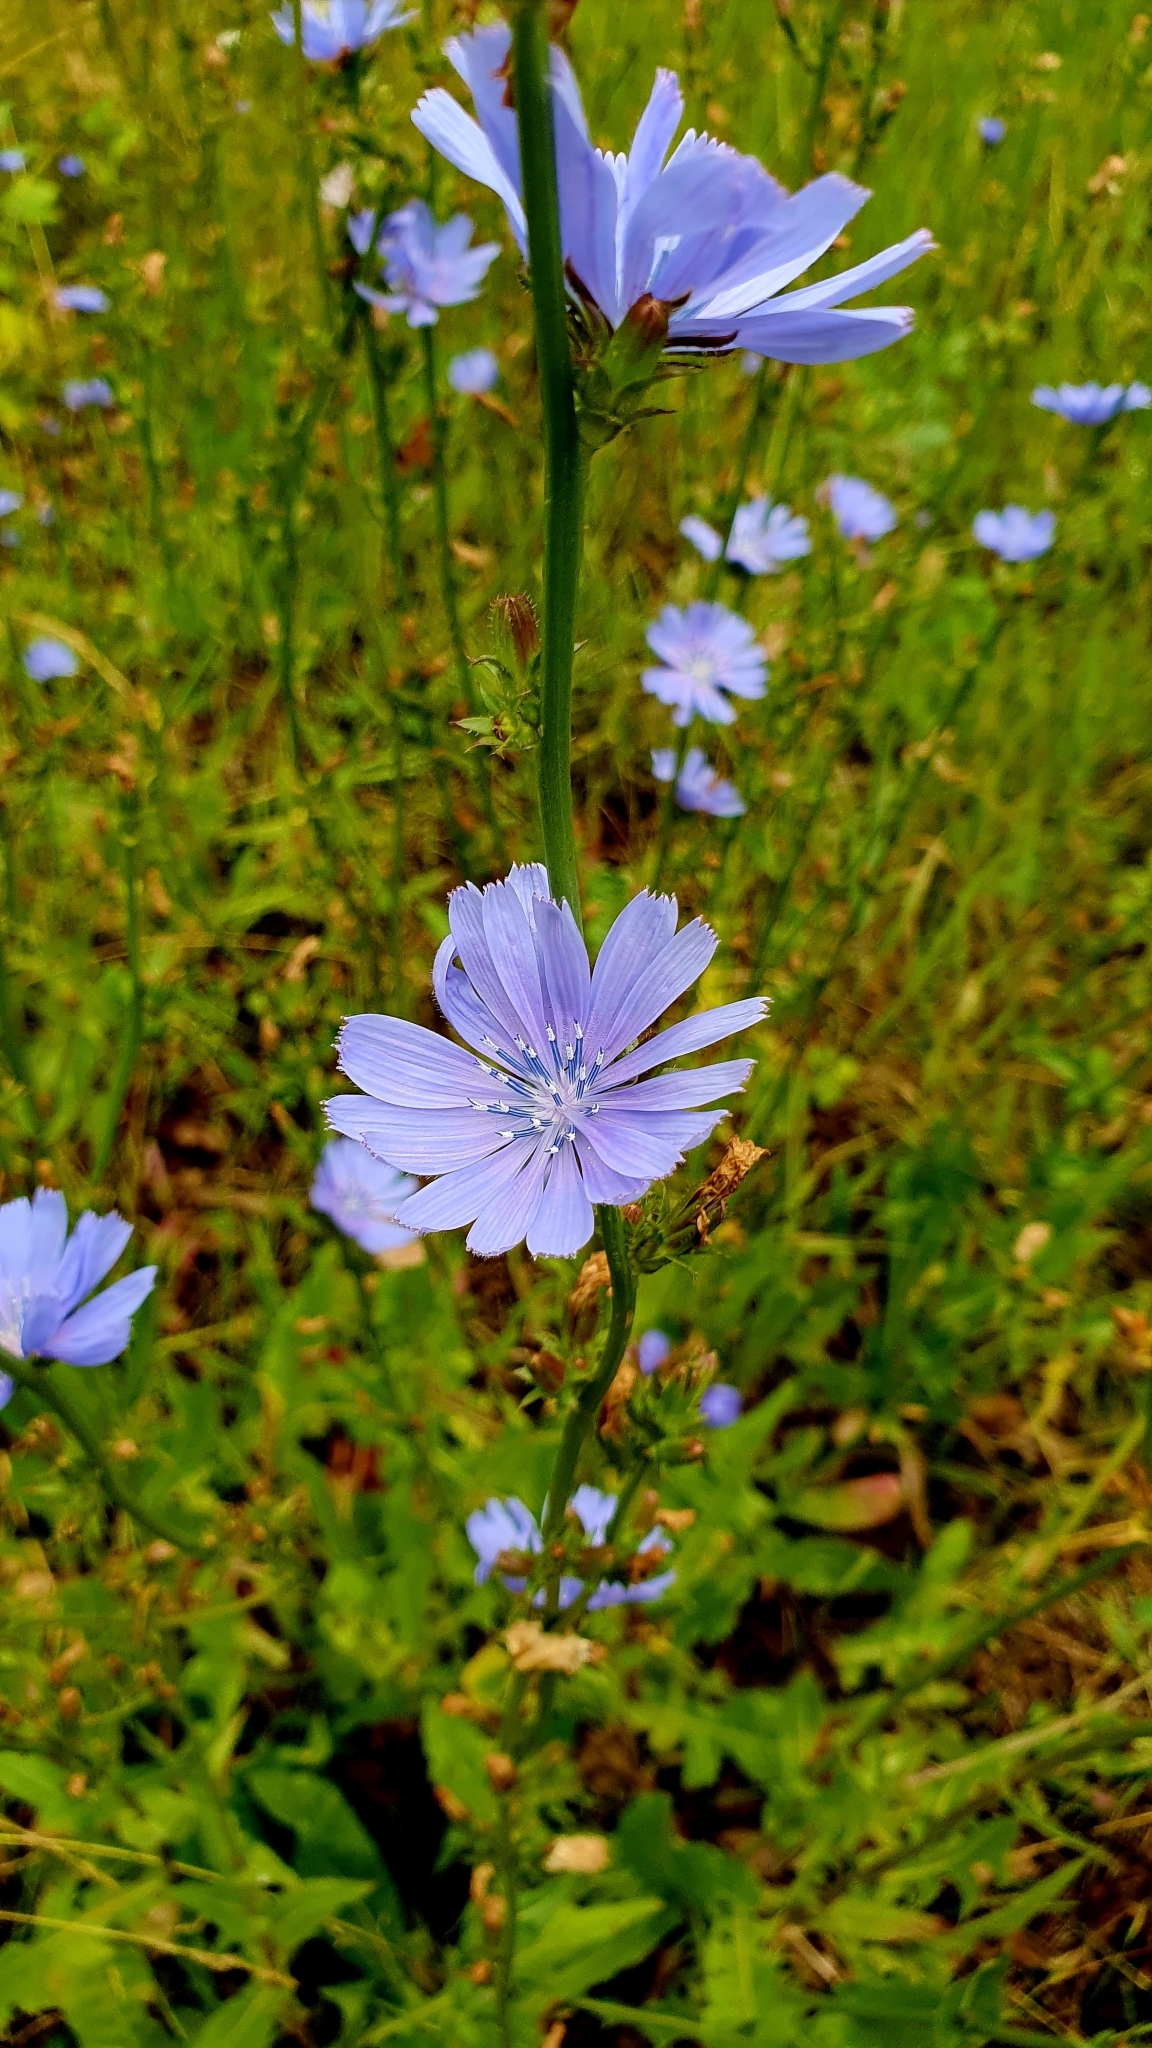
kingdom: Plantae
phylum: Tracheophyta
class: Magnoliopsida
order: Asterales
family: Asteraceae
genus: Cichorium
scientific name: Cichorium intybus
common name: Chicory
